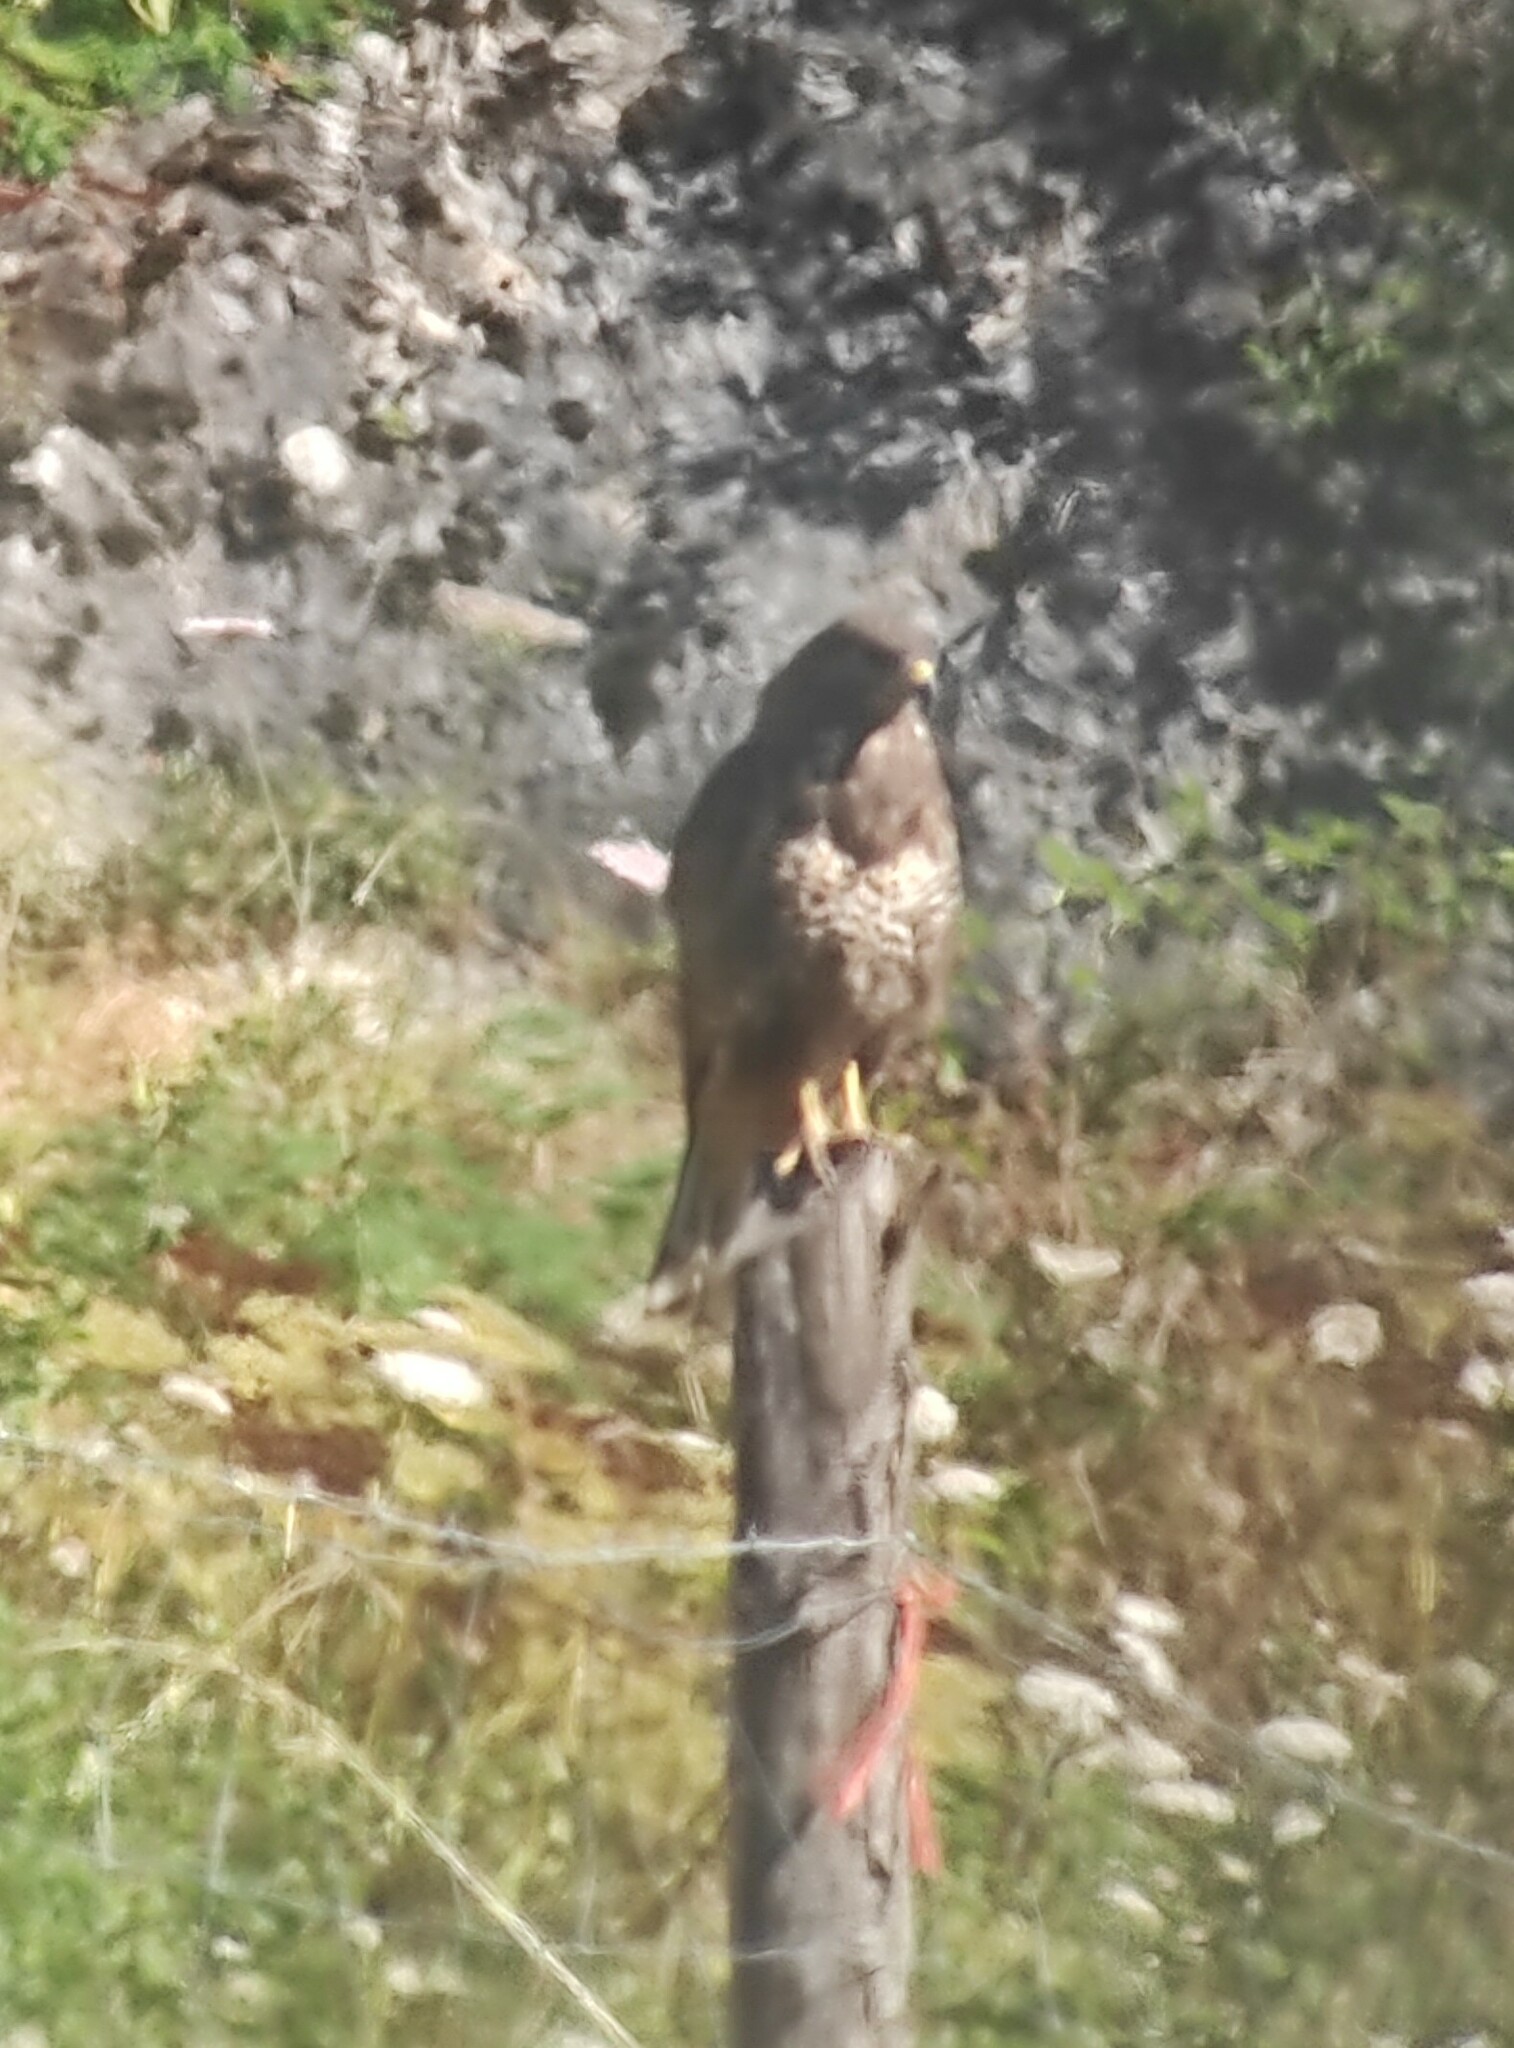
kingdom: Animalia
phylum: Chordata
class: Aves
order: Accipitriformes
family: Accipitridae
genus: Buteo
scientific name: Buteo buteo
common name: Common buzzard
